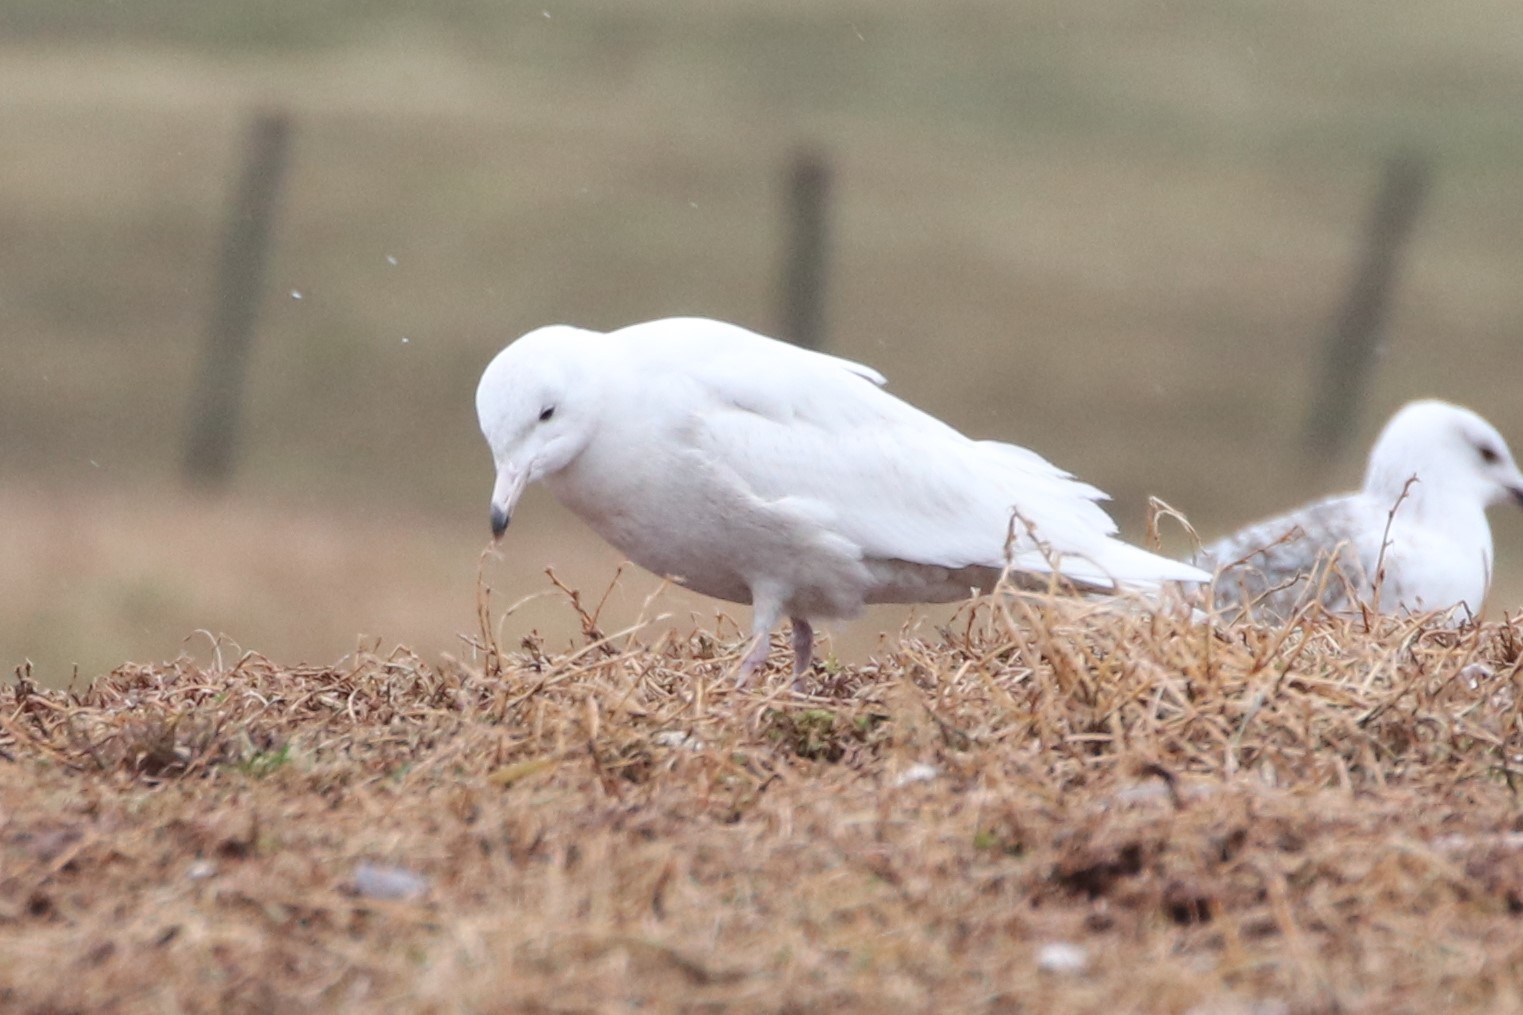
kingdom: Animalia
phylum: Chordata
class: Aves
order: Charadriiformes
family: Laridae
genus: Larus
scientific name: Larus hyperboreus
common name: Glaucous gull
